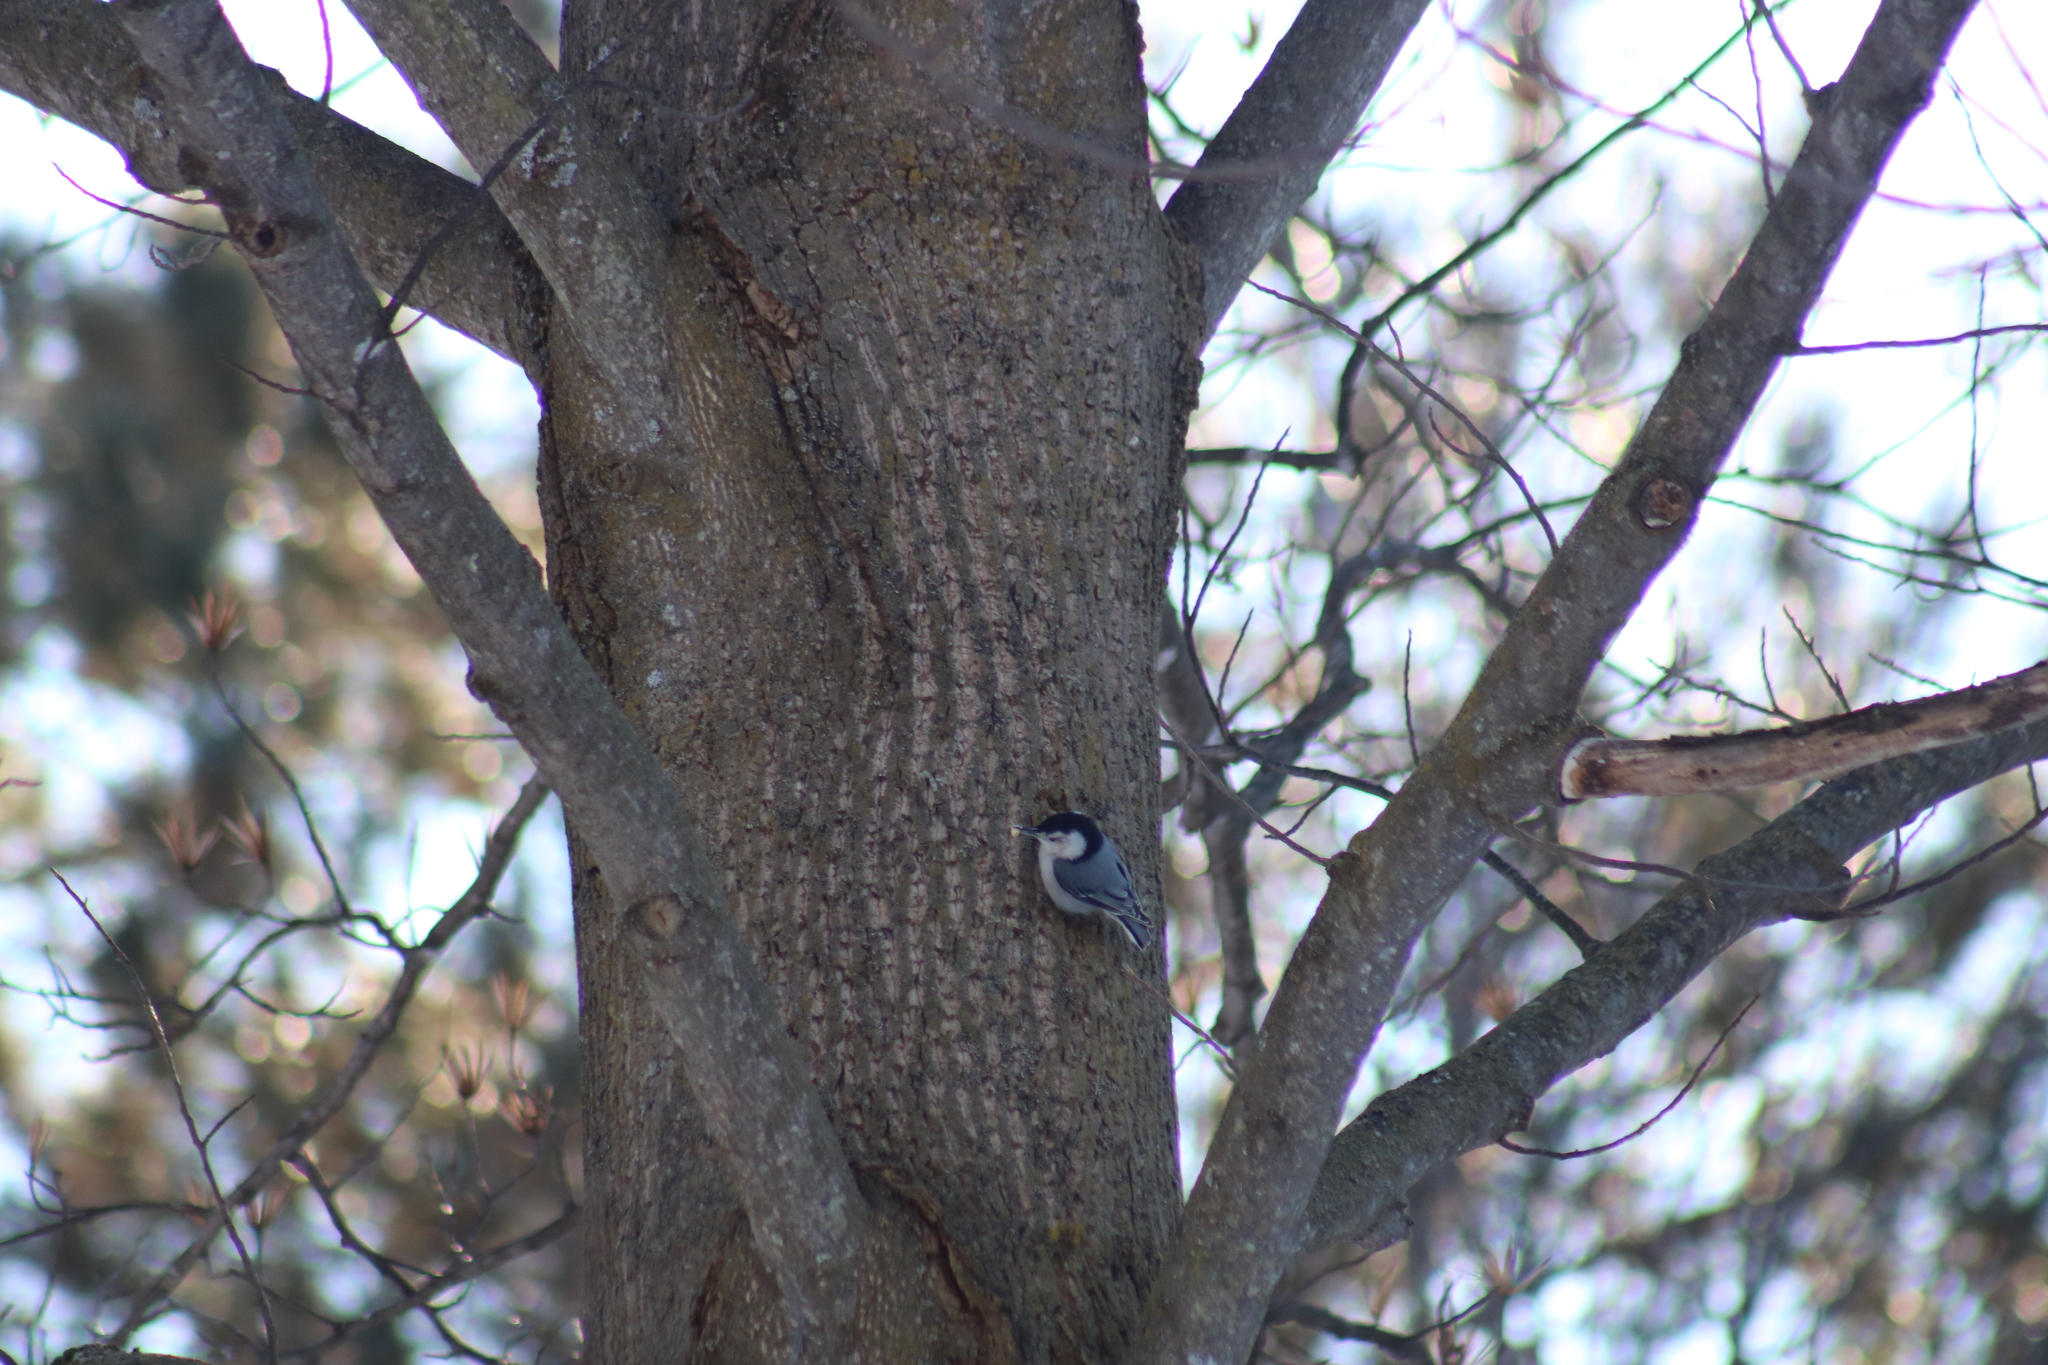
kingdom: Animalia
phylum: Chordata
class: Aves
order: Passeriformes
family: Sittidae
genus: Sitta
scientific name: Sitta carolinensis
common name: White-breasted nuthatch
